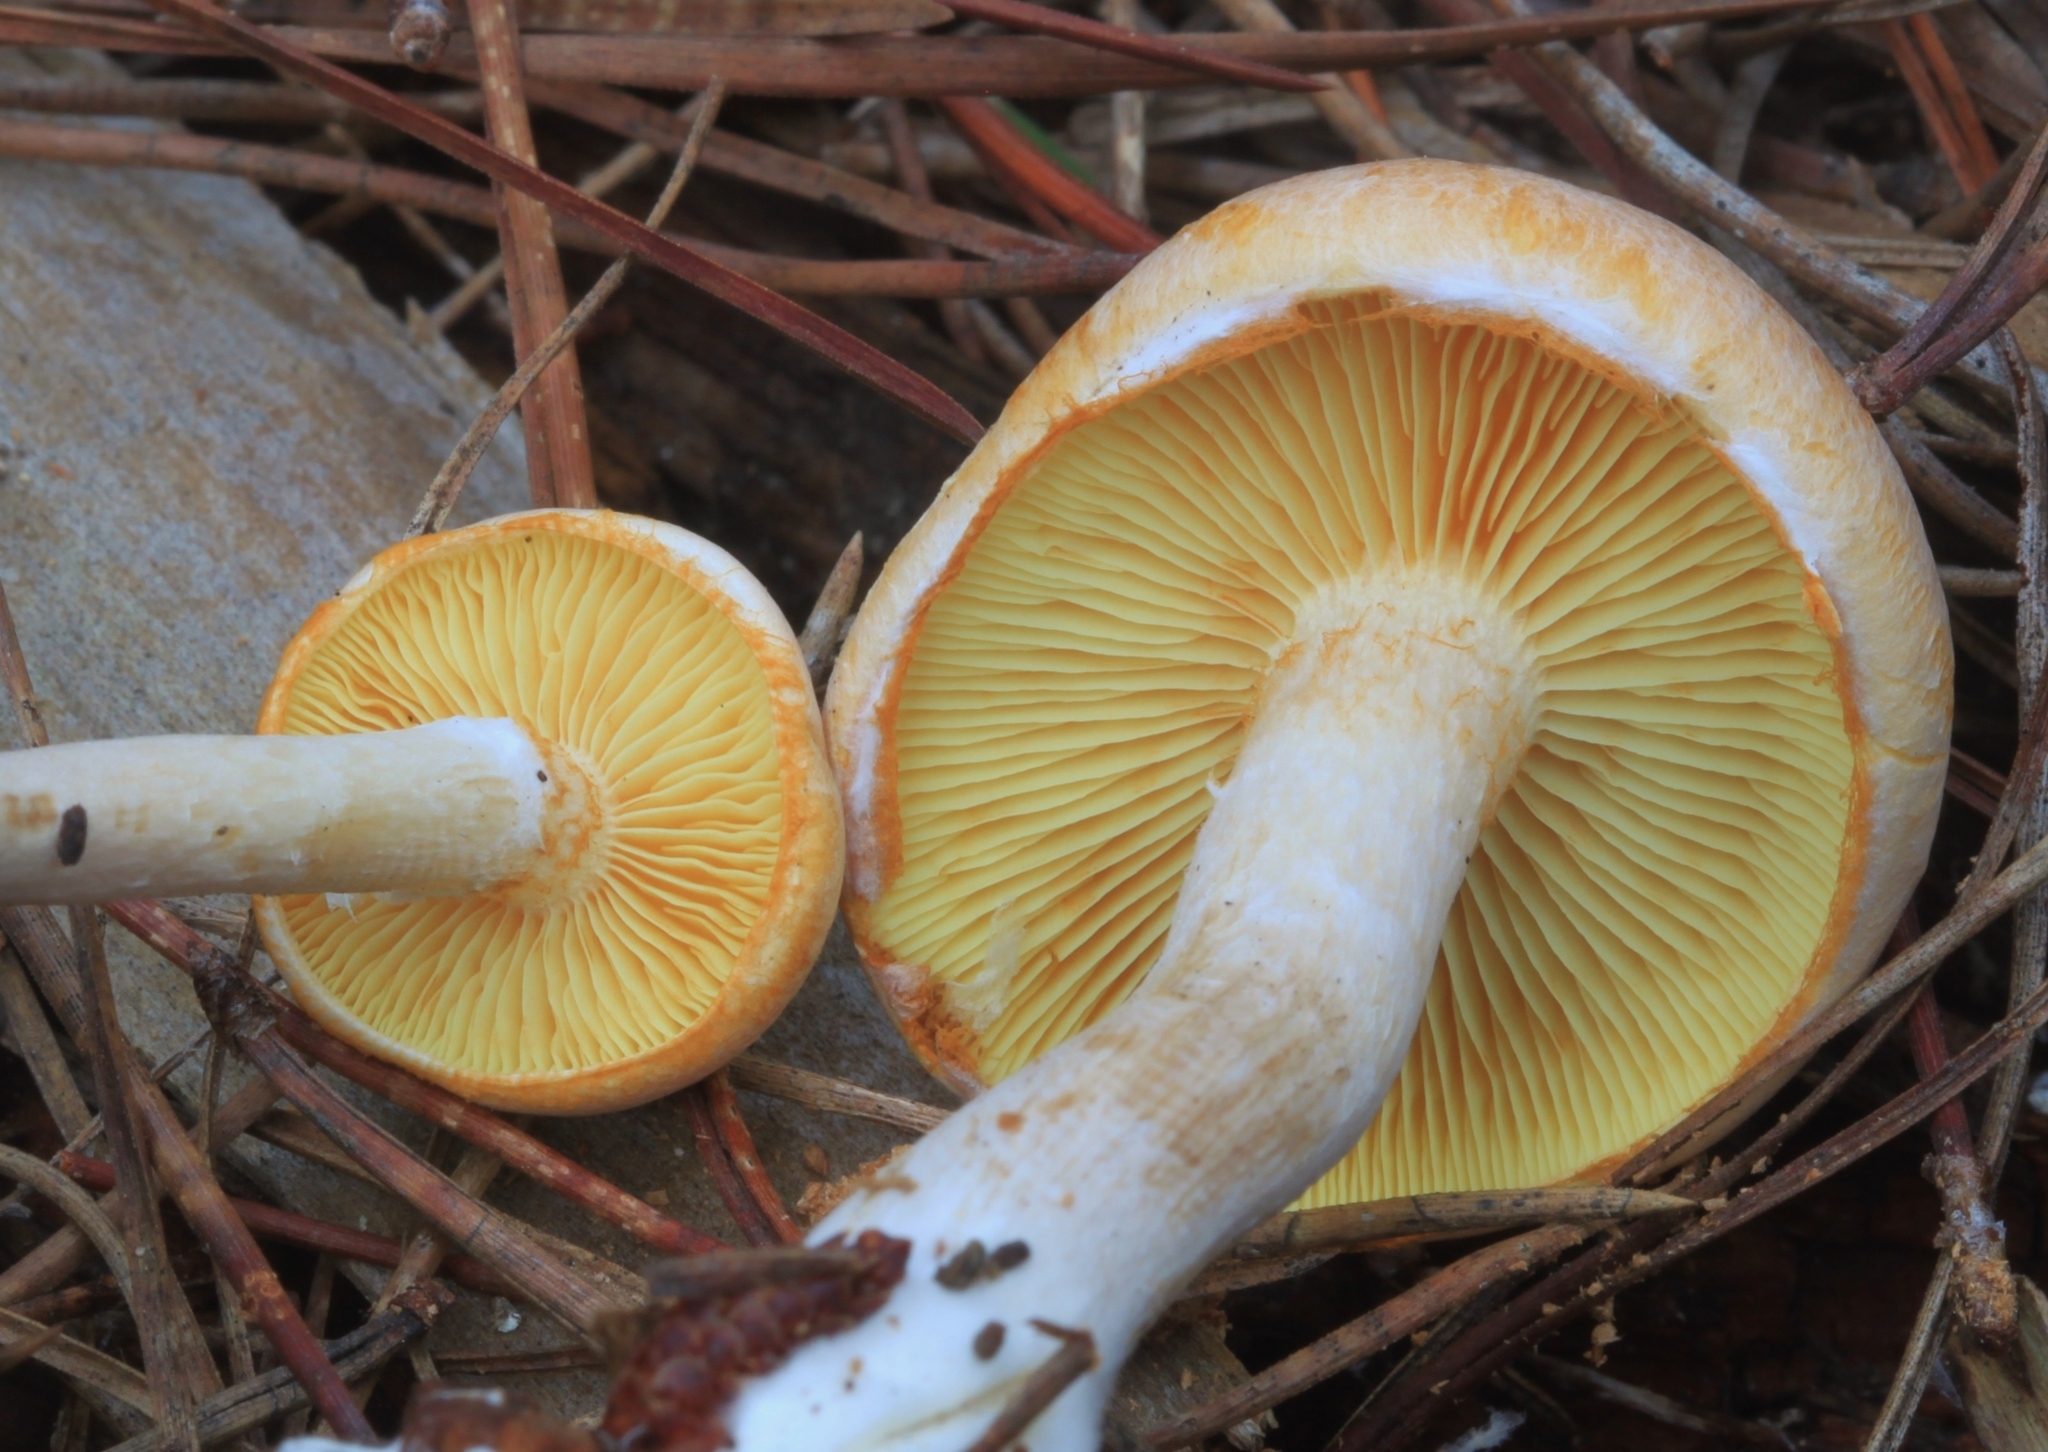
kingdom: Fungi
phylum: Basidiomycota
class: Agaricomycetes
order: Agaricales
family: Hymenogastraceae
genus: Gymnopilus
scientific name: Gymnopilus allantopus
